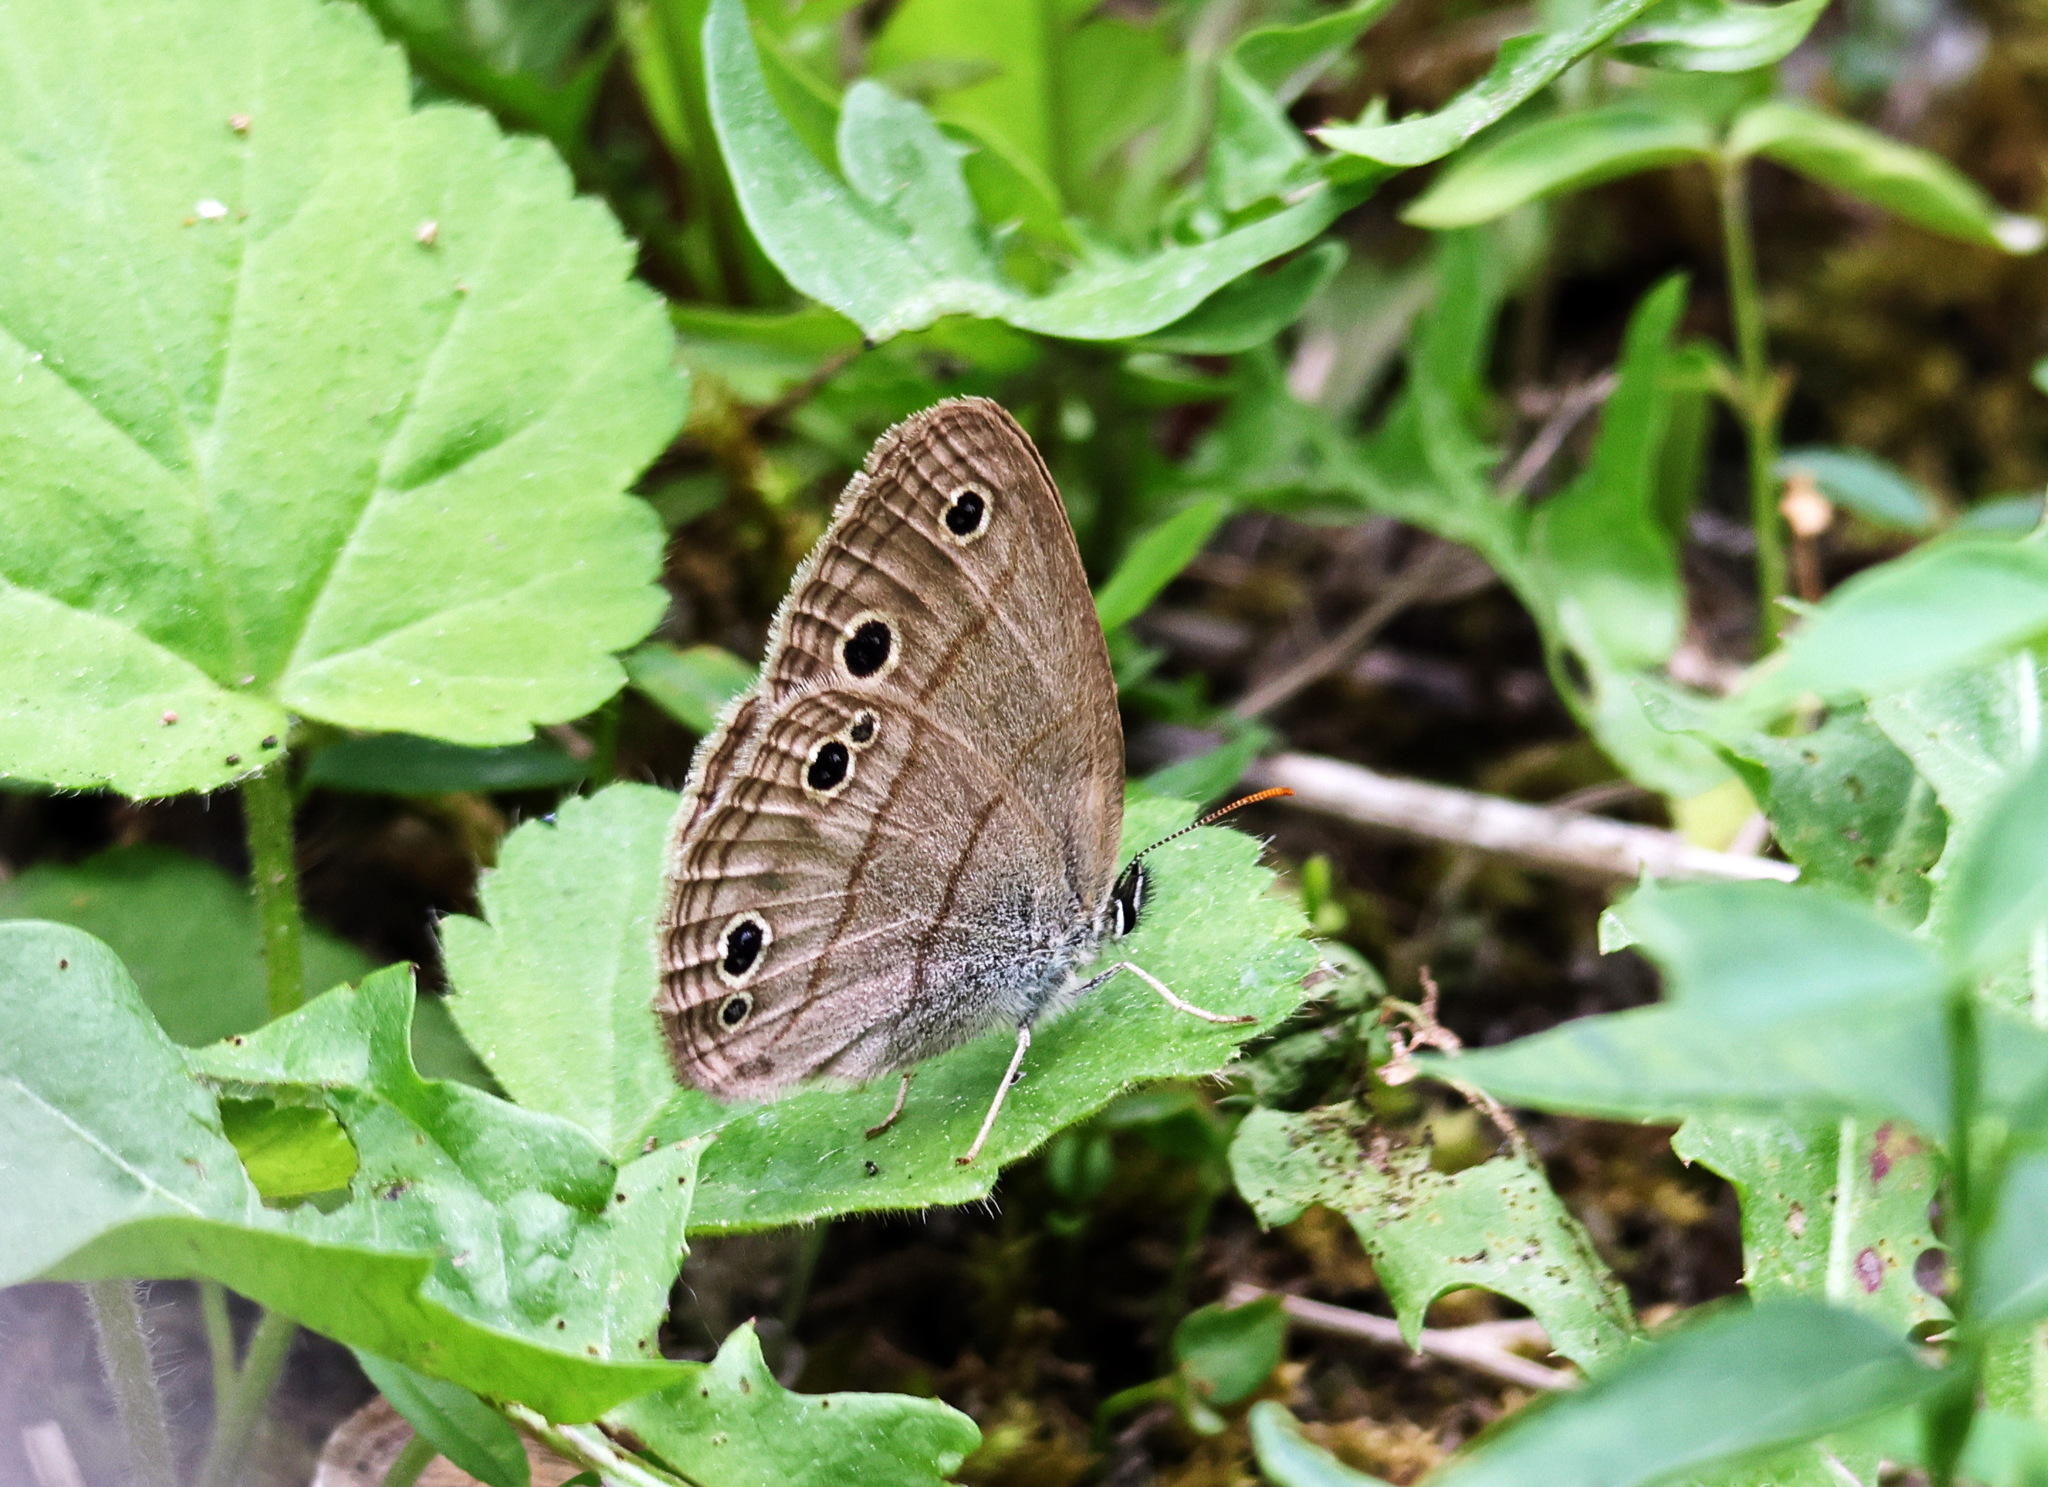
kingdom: Animalia
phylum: Arthropoda
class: Insecta
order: Lepidoptera
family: Nymphalidae
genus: Euptychia
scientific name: Euptychia cymela
